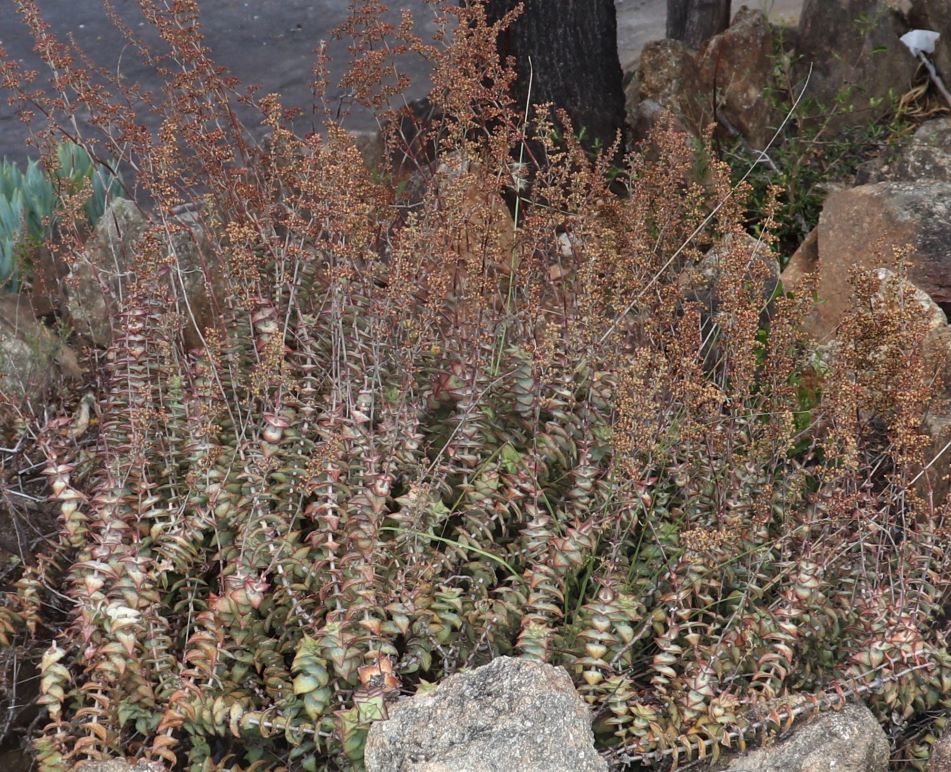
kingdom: Plantae
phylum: Tracheophyta
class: Magnoliopsida
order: Saxifragales
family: Crassulaceae
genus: Crassula
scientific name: Crassula perforata
